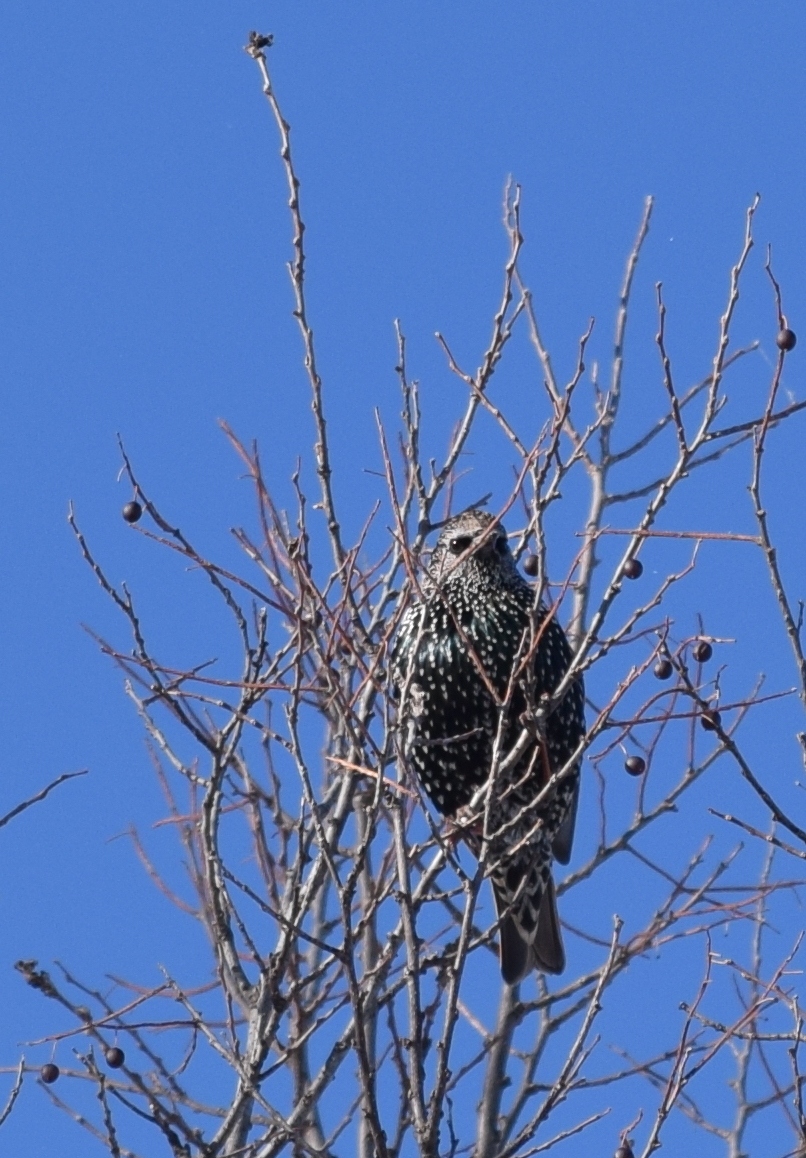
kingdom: Animalia
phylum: Chordata
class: Aves
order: Passeriformes
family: Sturnidae
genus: Sturnus
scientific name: Sturnus vulgaris
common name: Common starling
